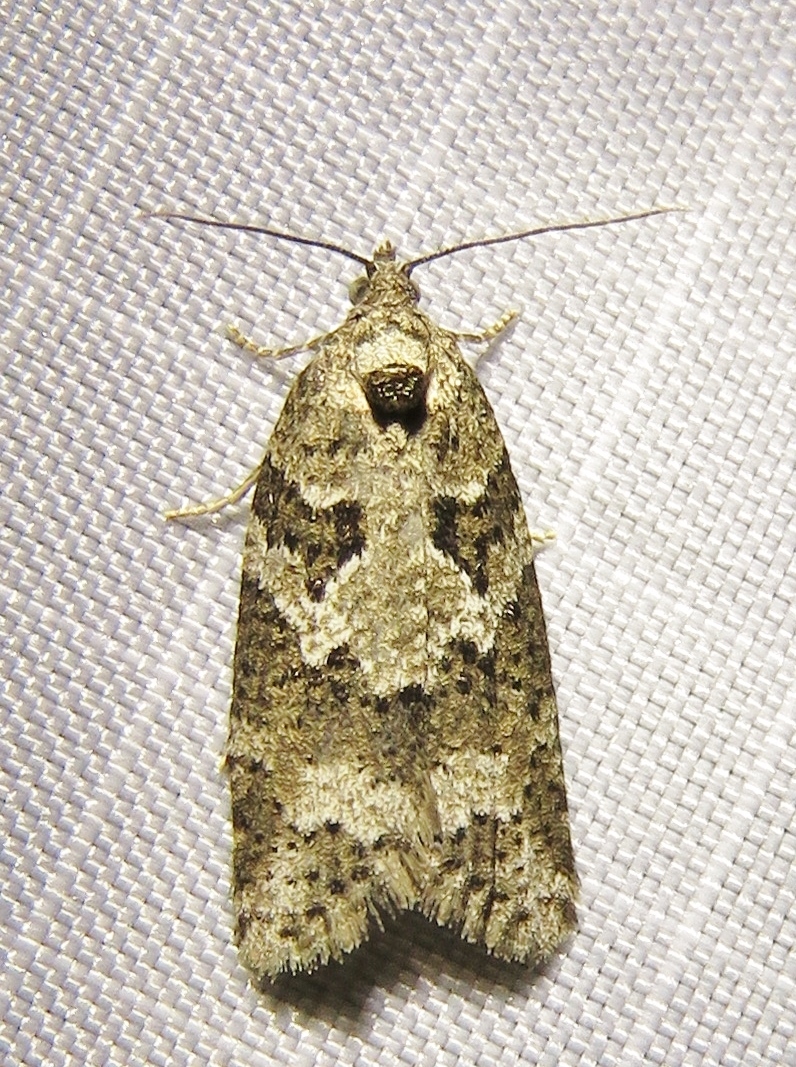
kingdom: Animalia
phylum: Arthropoda
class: Insecta
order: Lepidoptera
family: Tortricidae
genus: Cnephasia
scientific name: Cnephasia stephensiana
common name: Grey tortrix
